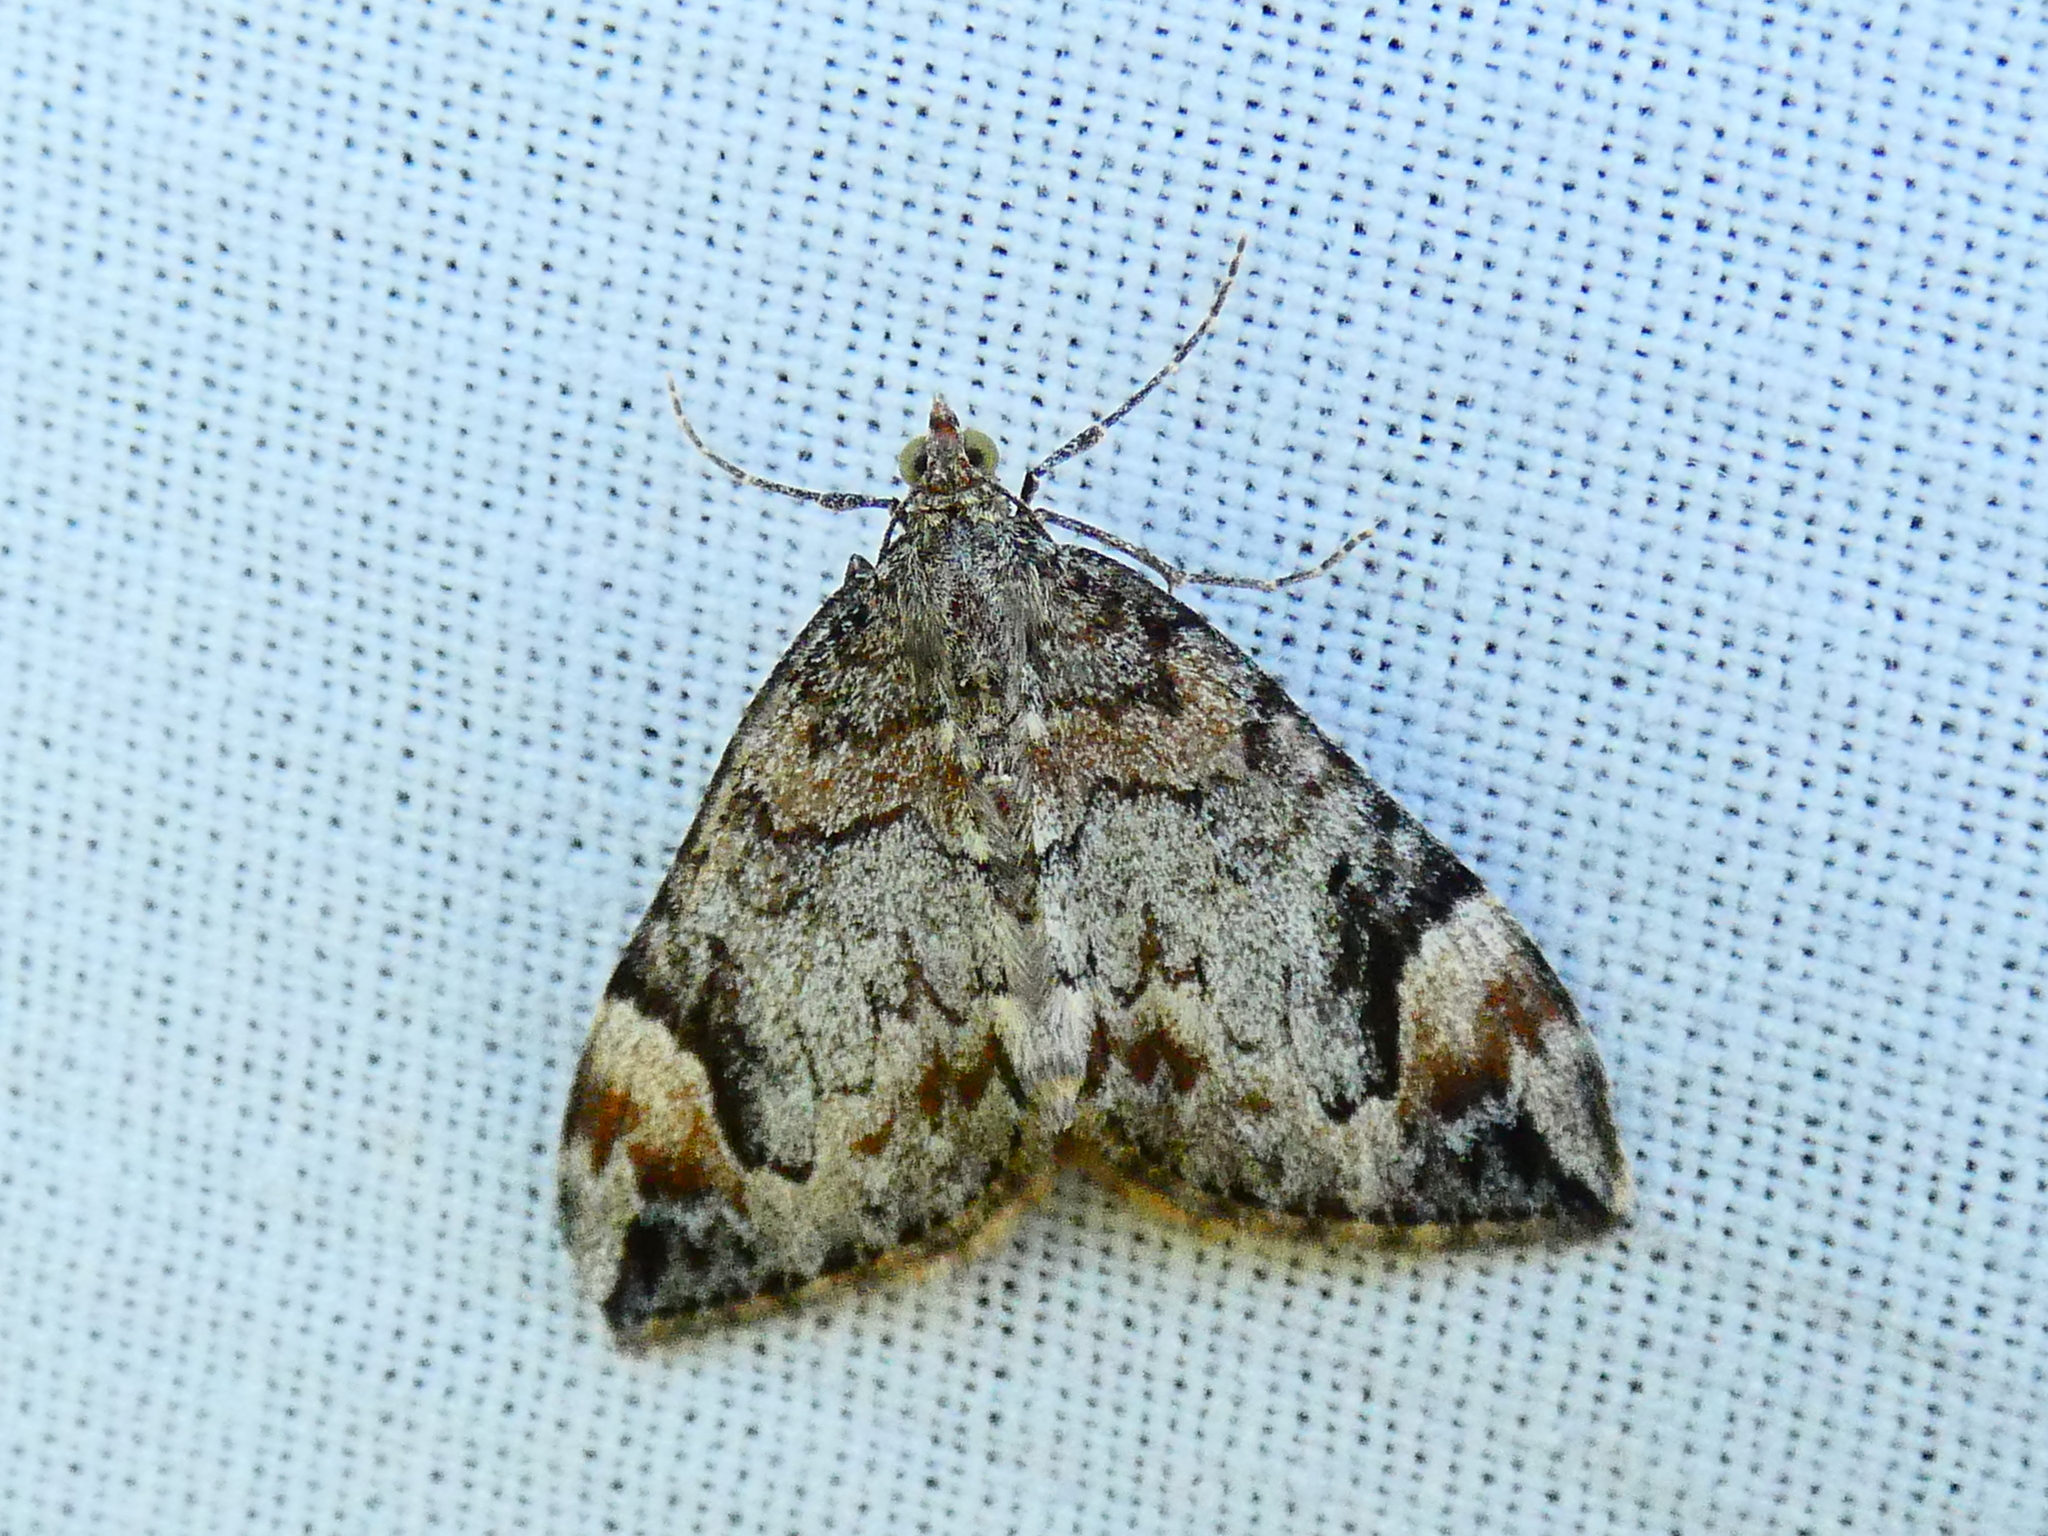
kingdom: Animalia
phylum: Arthropoda
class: Insecta
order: Lepidoptera
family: Geometridae
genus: Dysstroma
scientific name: Dysstroma citrata
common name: Dark marbled carpet
